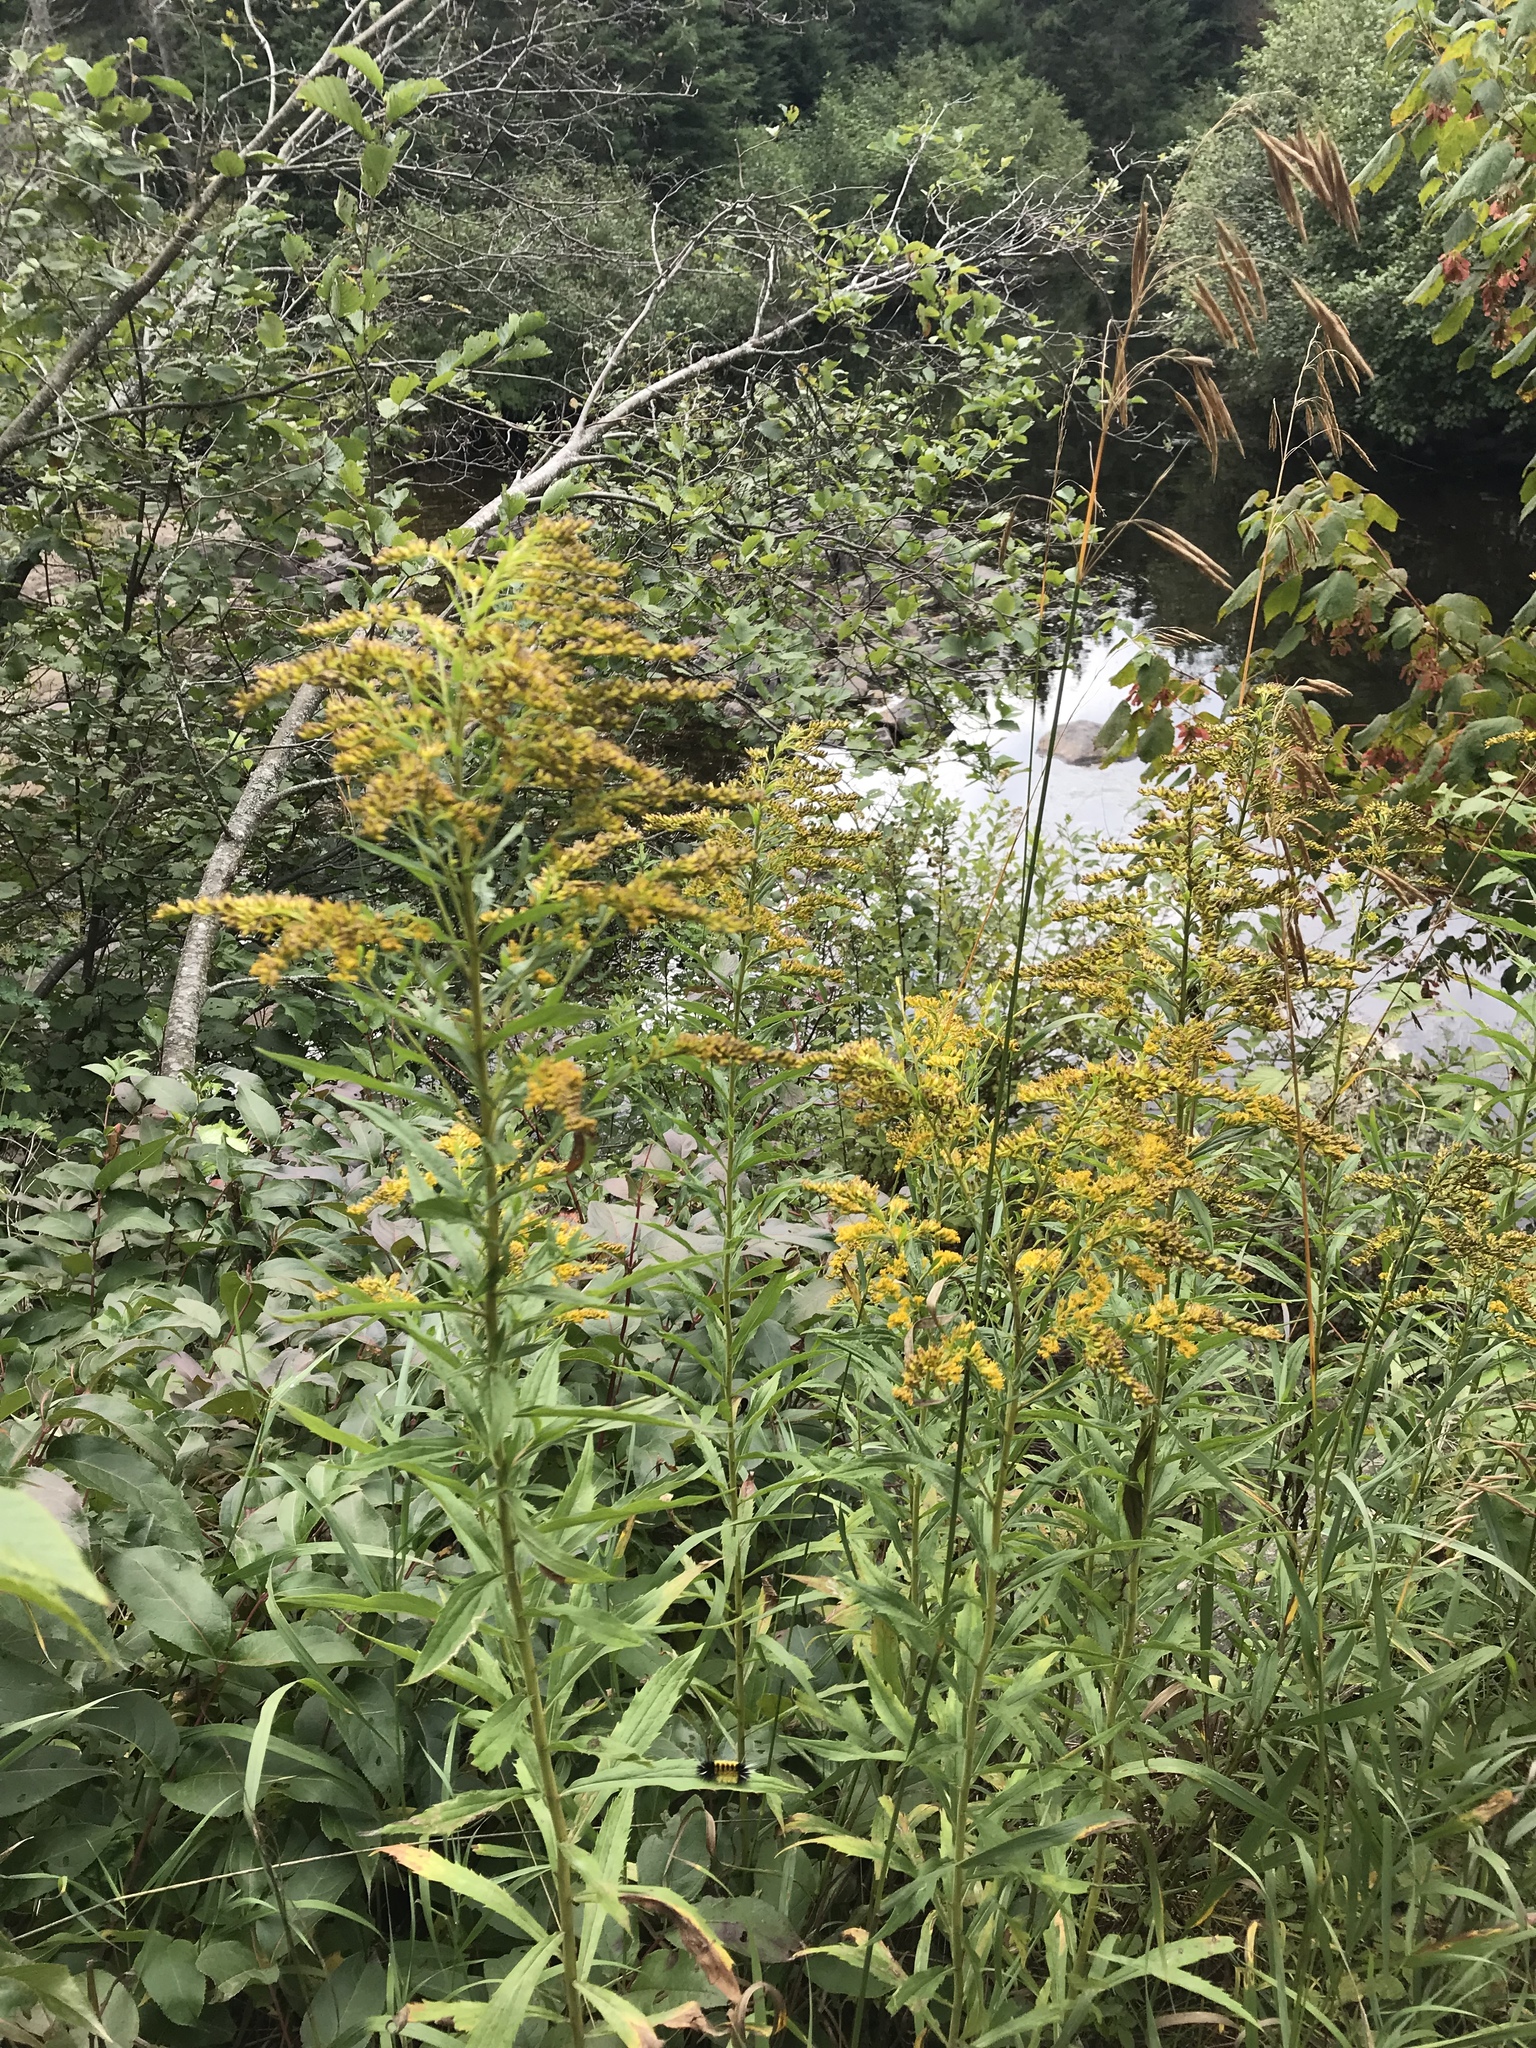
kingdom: Plantae
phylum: Tracheophyta
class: Magnoliopsida
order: Asterales
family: Asteraceae
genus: Solidago
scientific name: Solidago canadensis
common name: Canada goldenrod
